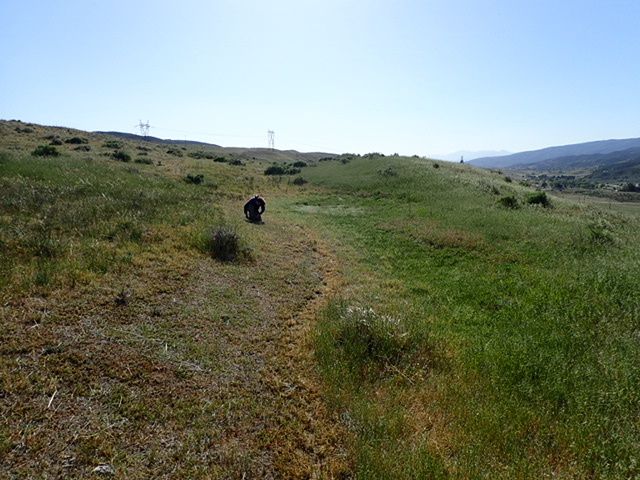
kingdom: Plantae
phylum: Tracheophyta
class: Magnoliopsida
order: Boraginales
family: Boraginaceae
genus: Plagiobothrys
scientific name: Plagiobothrys undulatus
